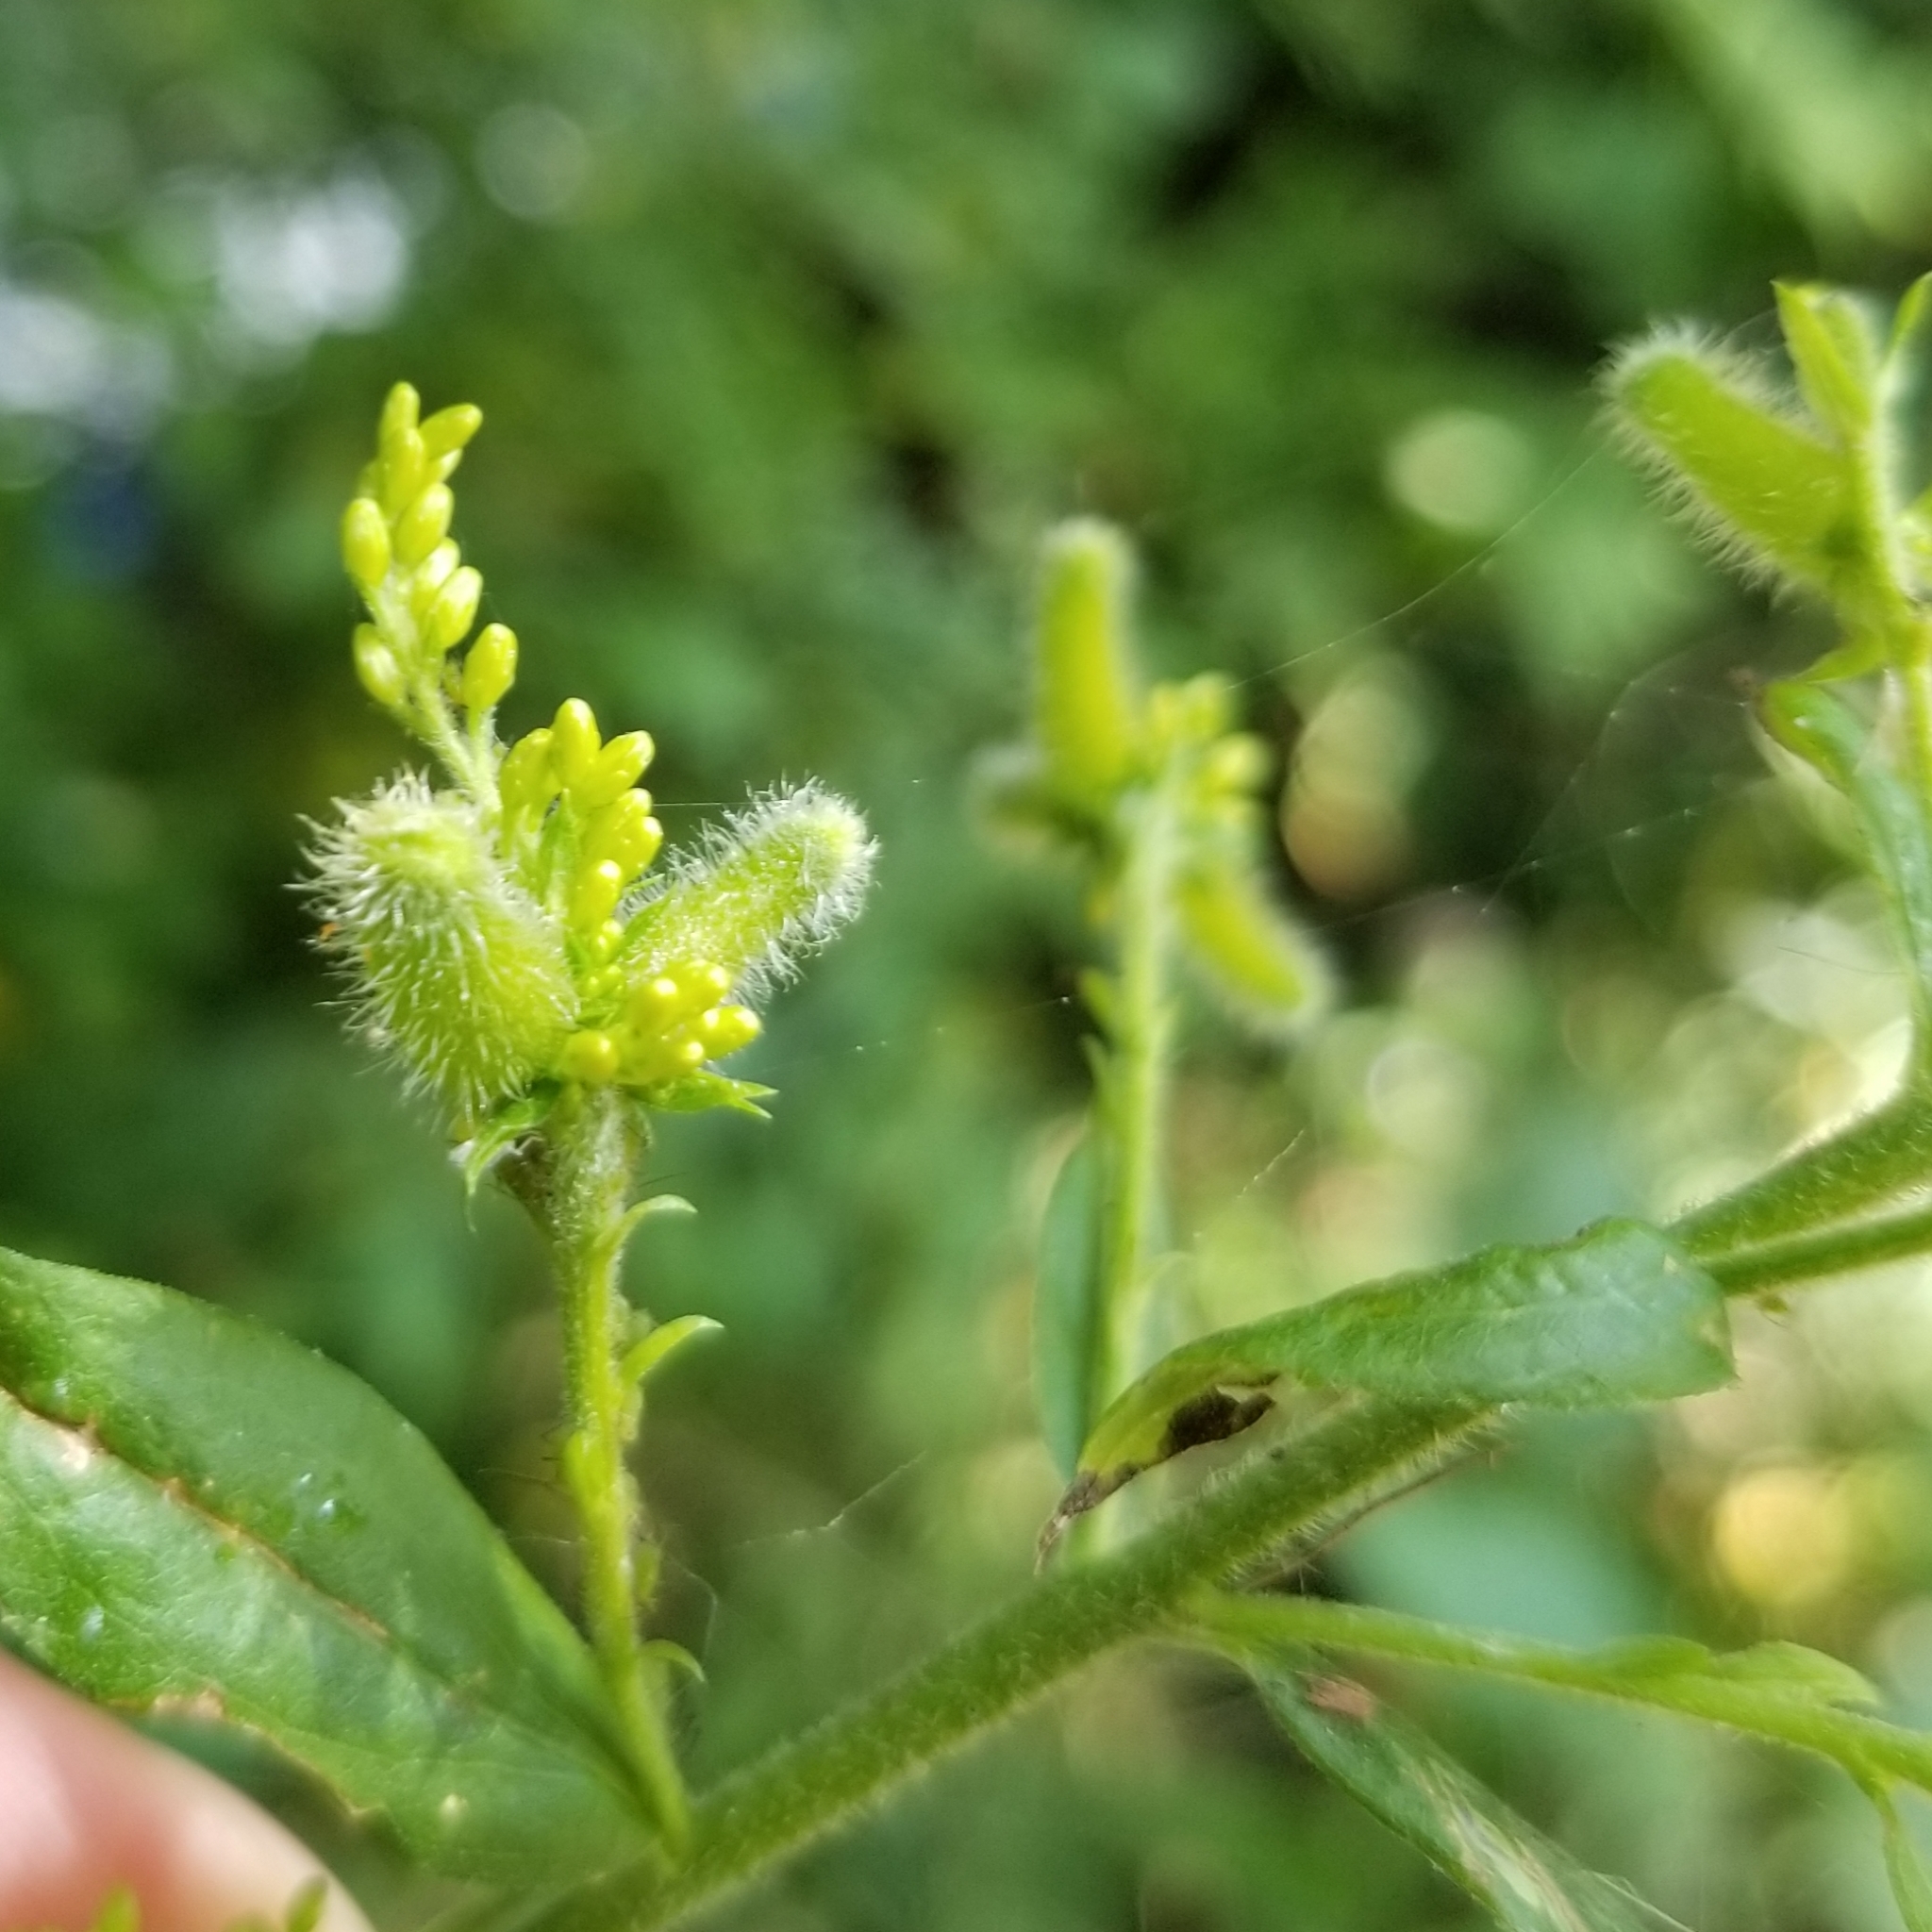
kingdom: Animalia
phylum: Arthropoda
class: Insecta
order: Diptera
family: Cecidomyiidae
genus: Rhopalomyia
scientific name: Rhopalomyia anthophila
